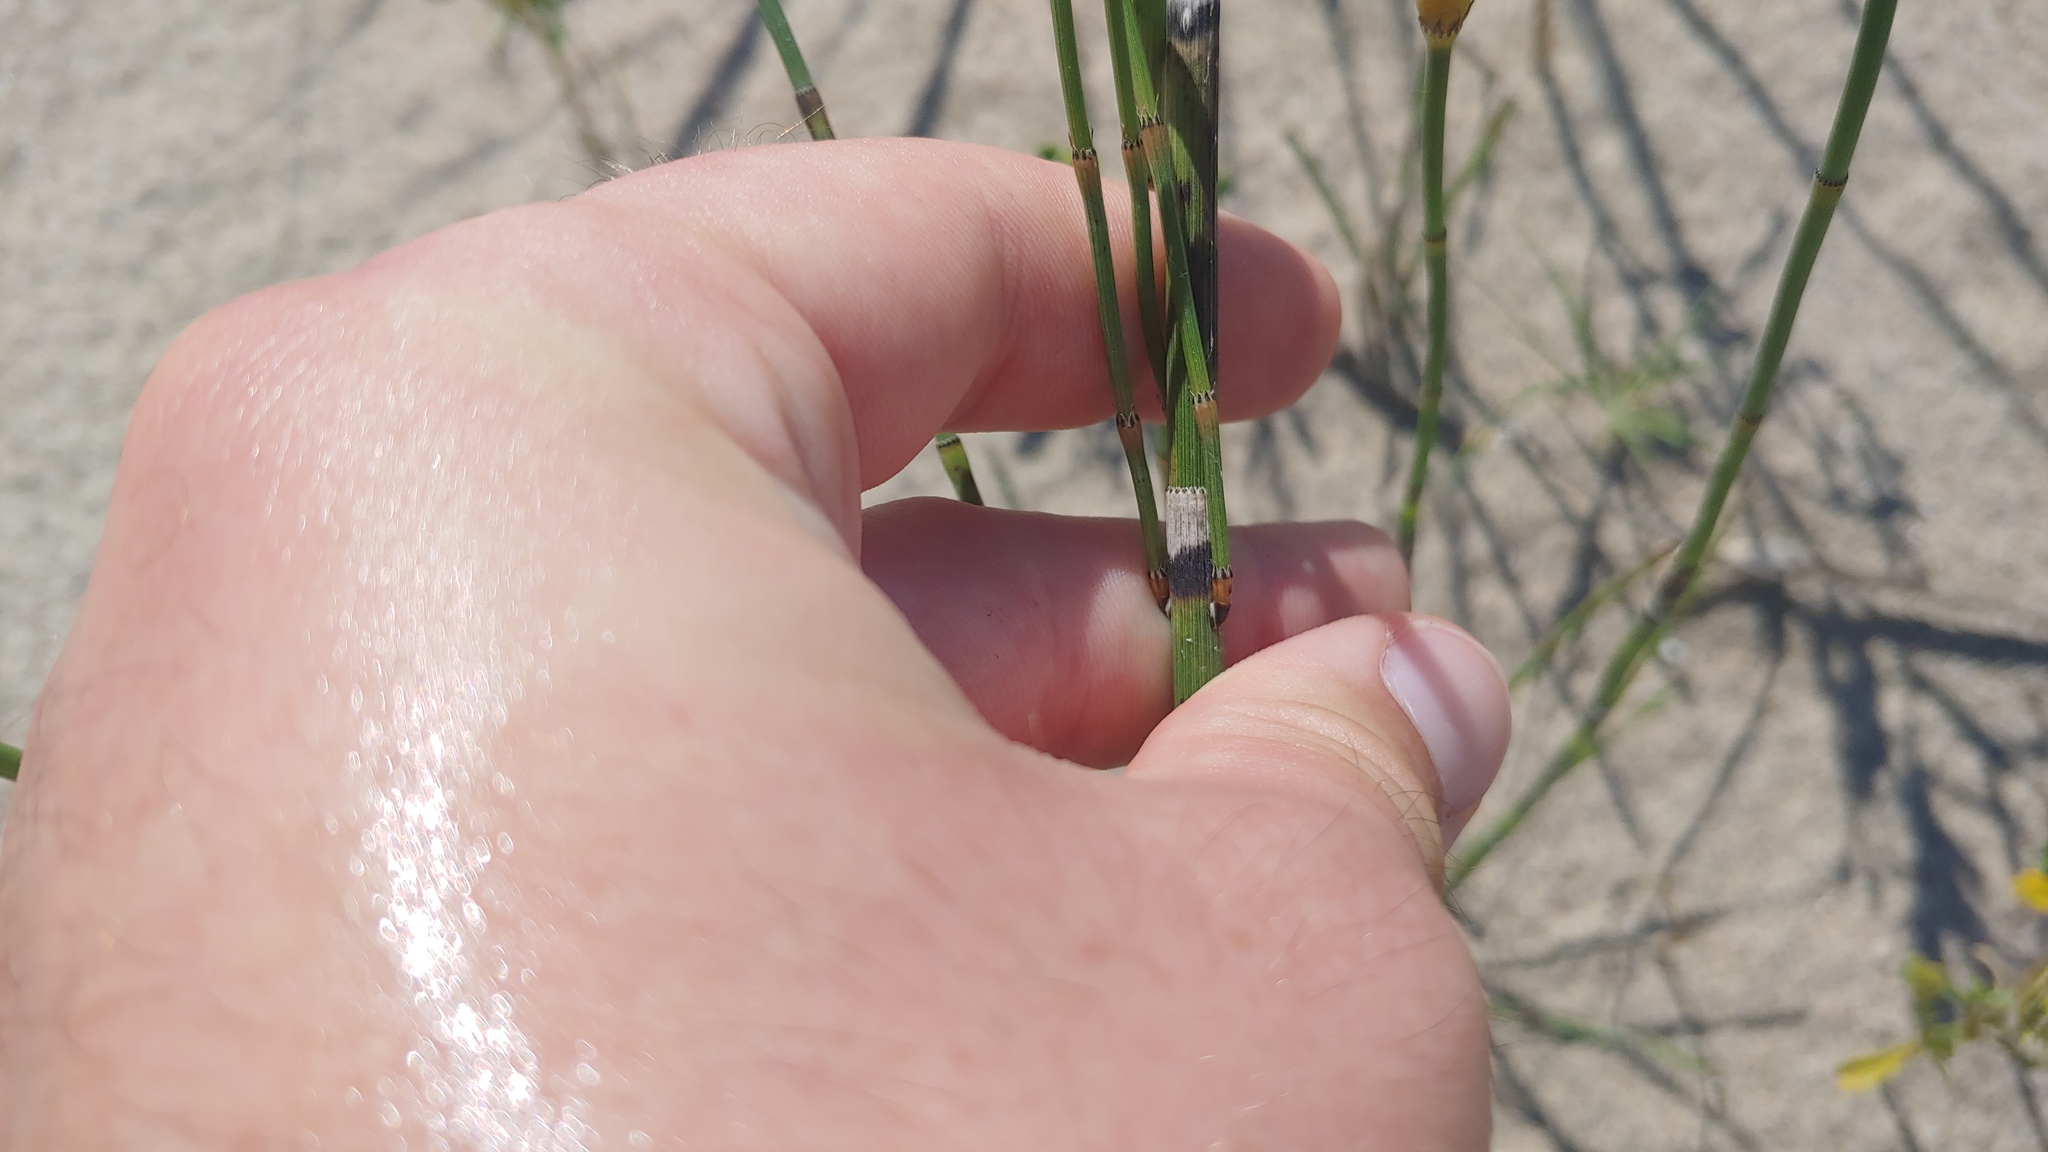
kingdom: Plantae
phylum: Tracheophyta
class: Polypodiopsida
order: Equisetales
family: Equisetaceae
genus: Equisetum
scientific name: Equisetum ferrissii
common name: Ferriss' horsetail
